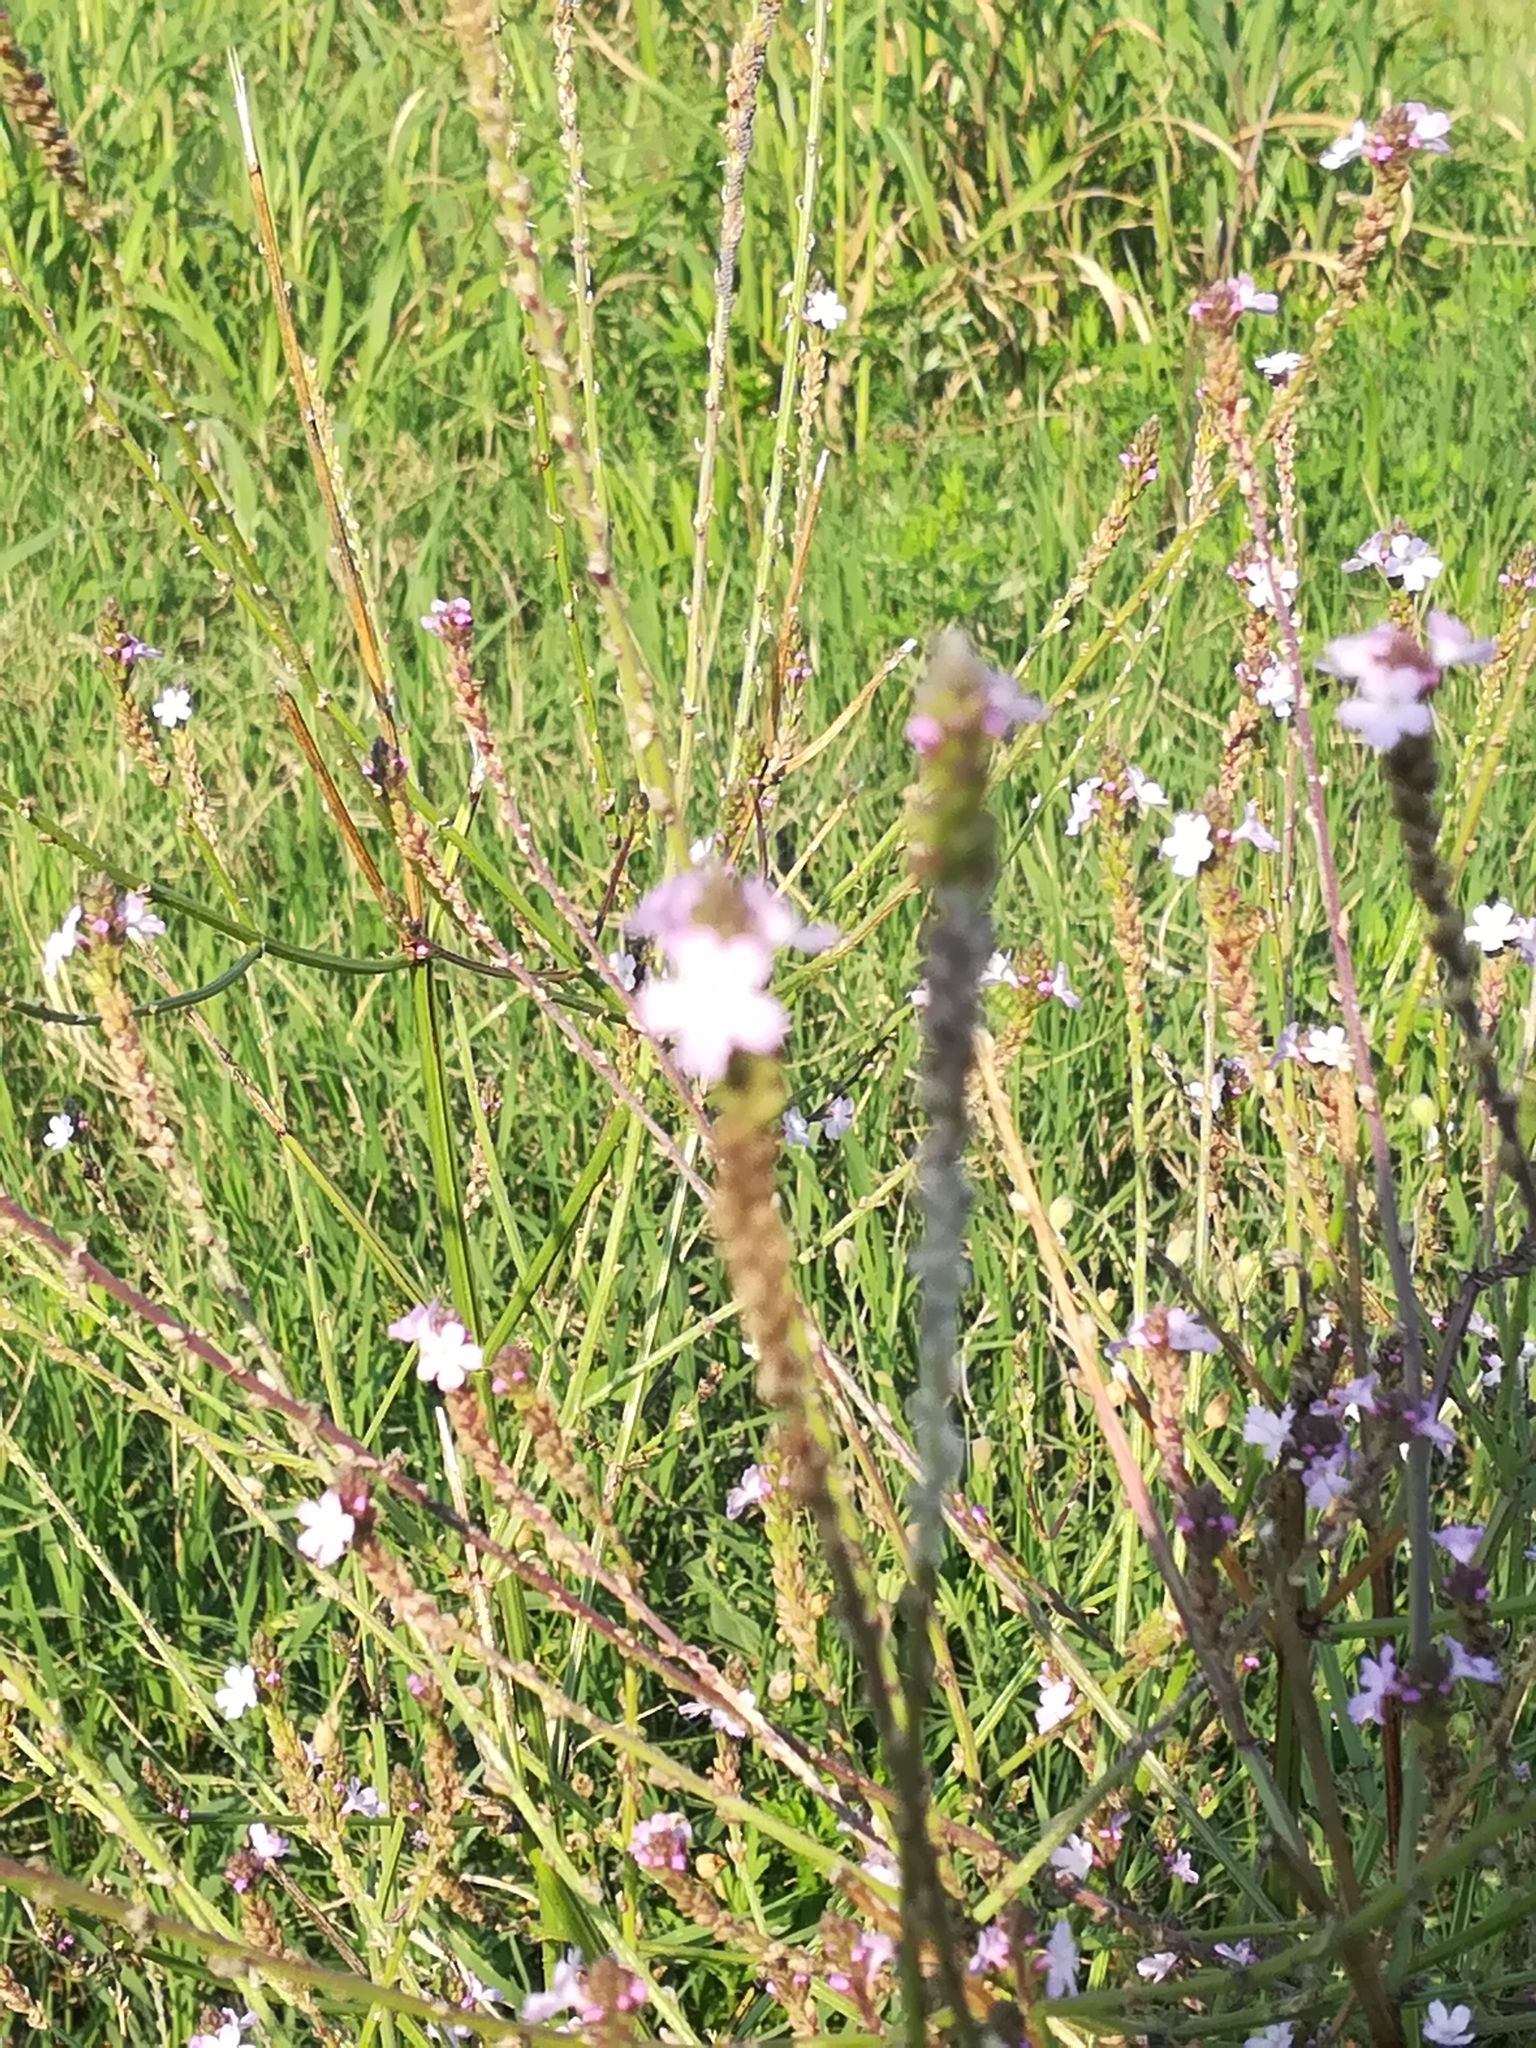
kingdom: Plantae
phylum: Tracheophyta
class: Magnoliopsida
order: Lamiales
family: Verbenaceae
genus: Verbena
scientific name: Verbena officinalis
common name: Vervain
